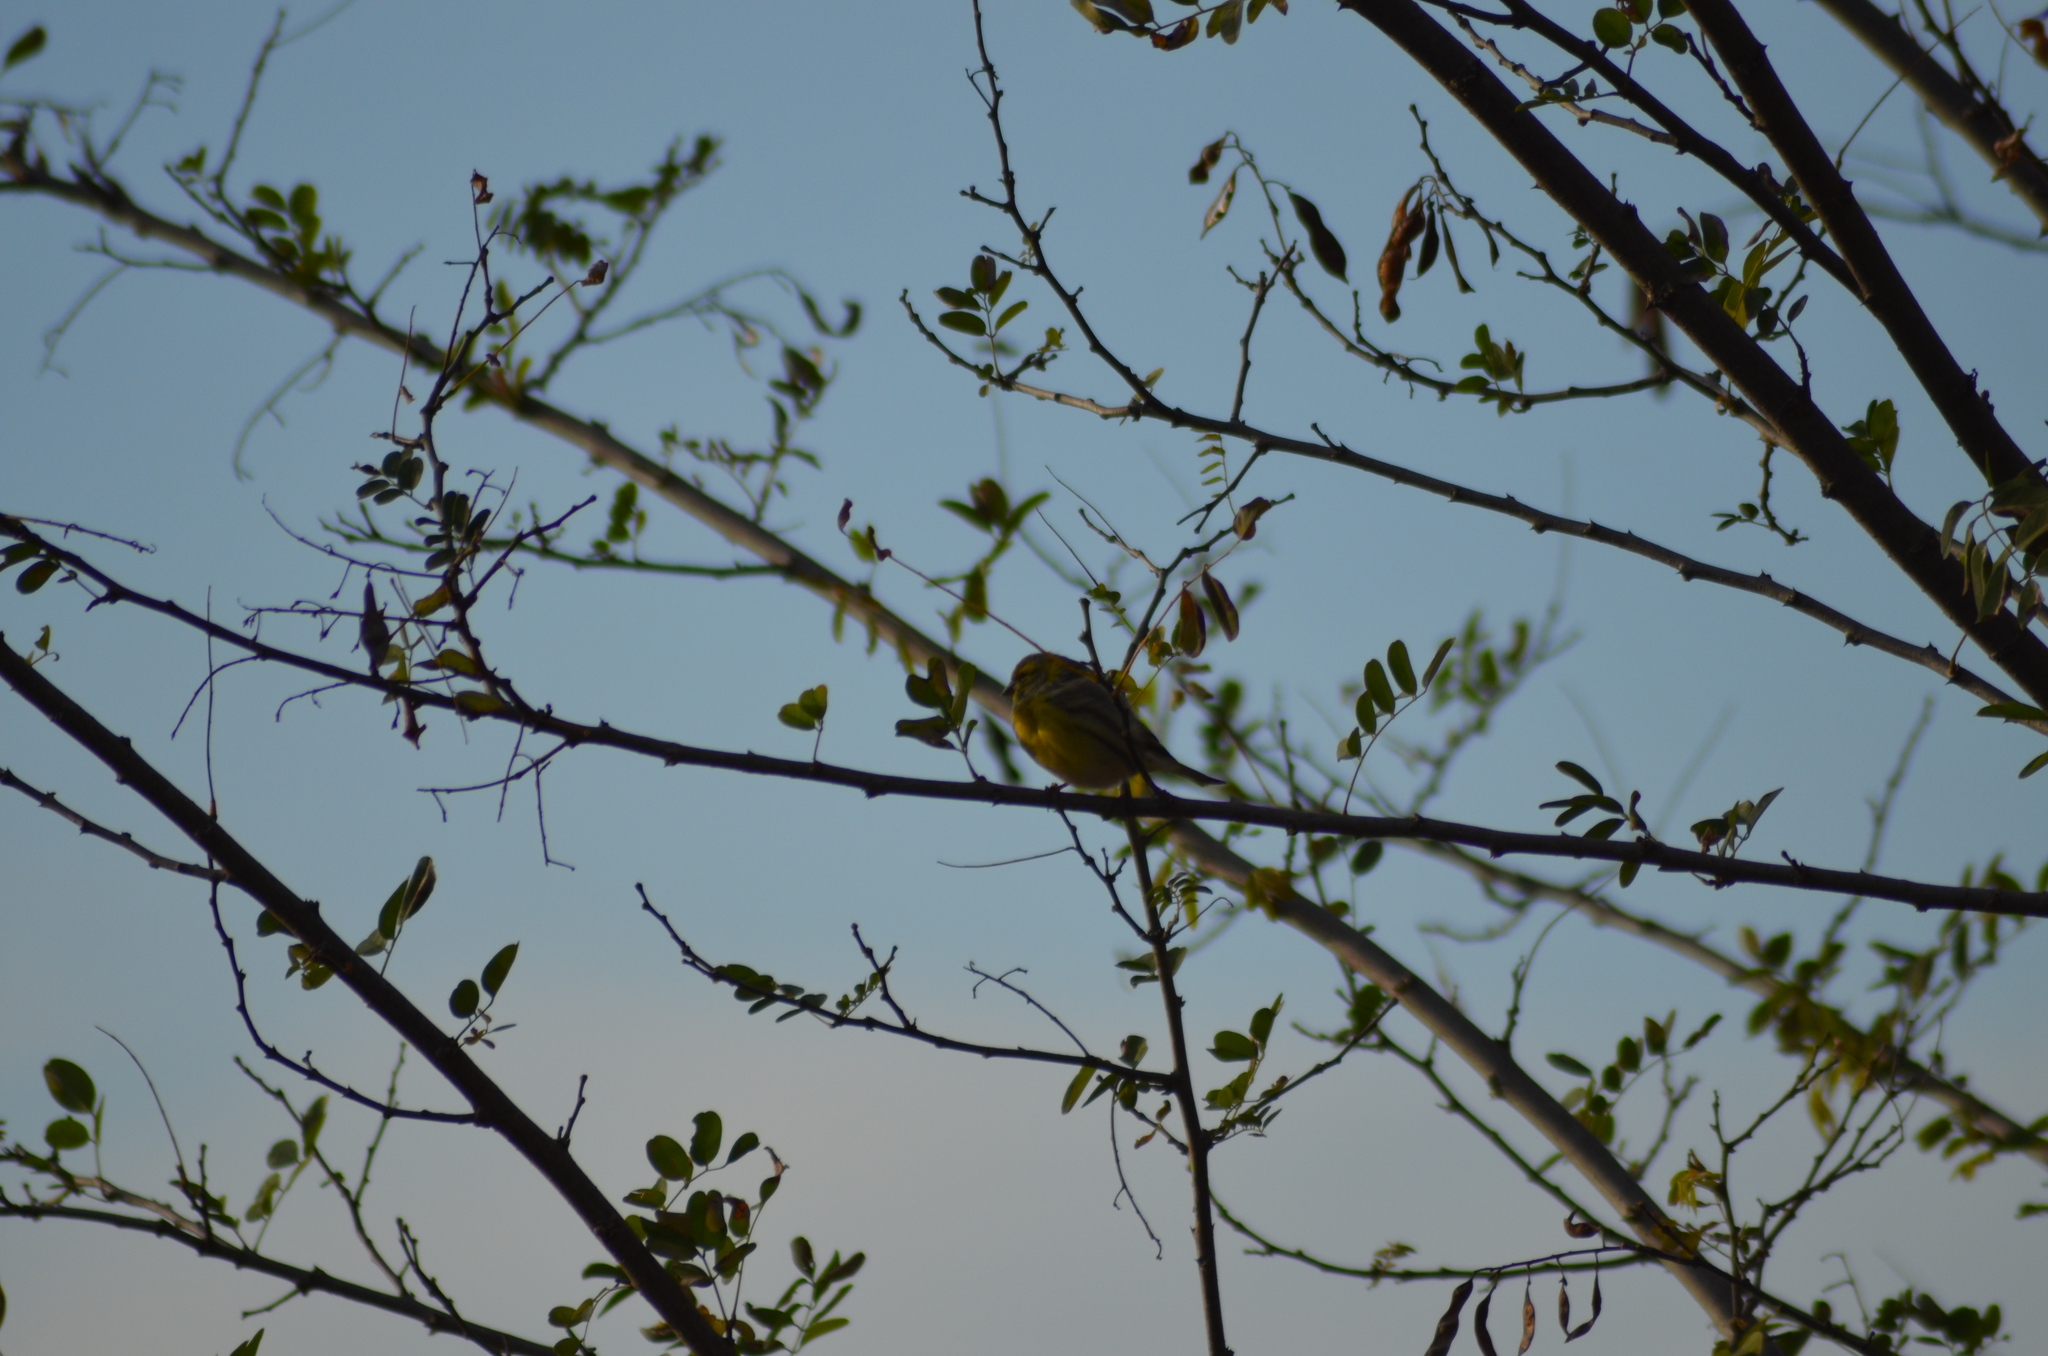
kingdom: Animalia
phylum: Chordata
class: Aves
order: Passeriformes
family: Fringillidae
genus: Serinus
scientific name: Serinus serinus
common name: European serin
